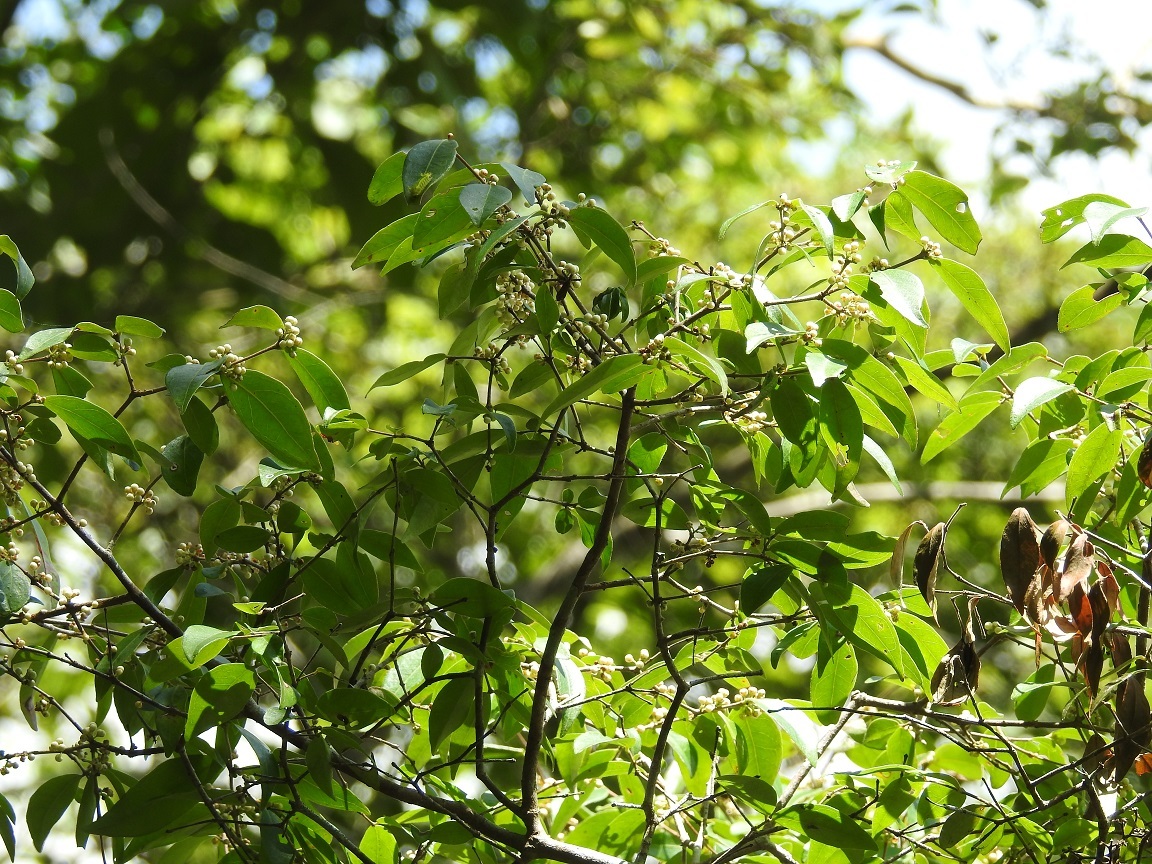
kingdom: Plantae
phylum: Tracheophyta
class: Magnoliopsida
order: Myrtales
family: Myrtaceae
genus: Eugenia
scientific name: Eugenia acapulcensis
